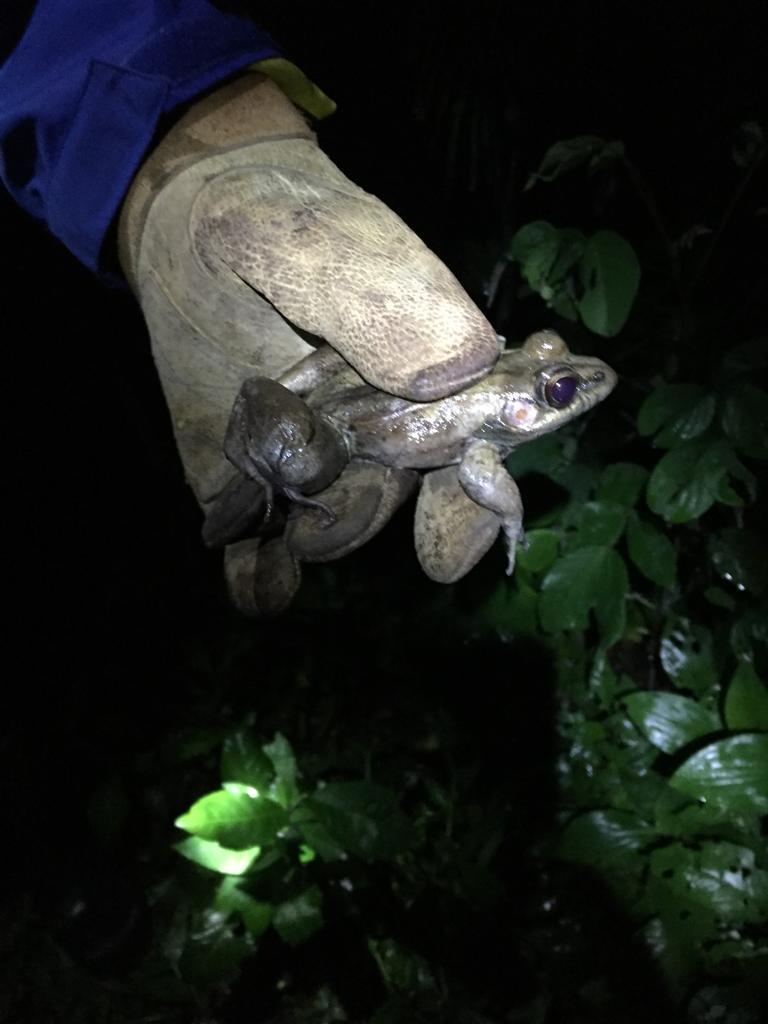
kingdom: Animalia
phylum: Chordata
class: Amphibia
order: Anura
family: Ranidae
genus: Lithobates
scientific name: Lithobates brownorum
